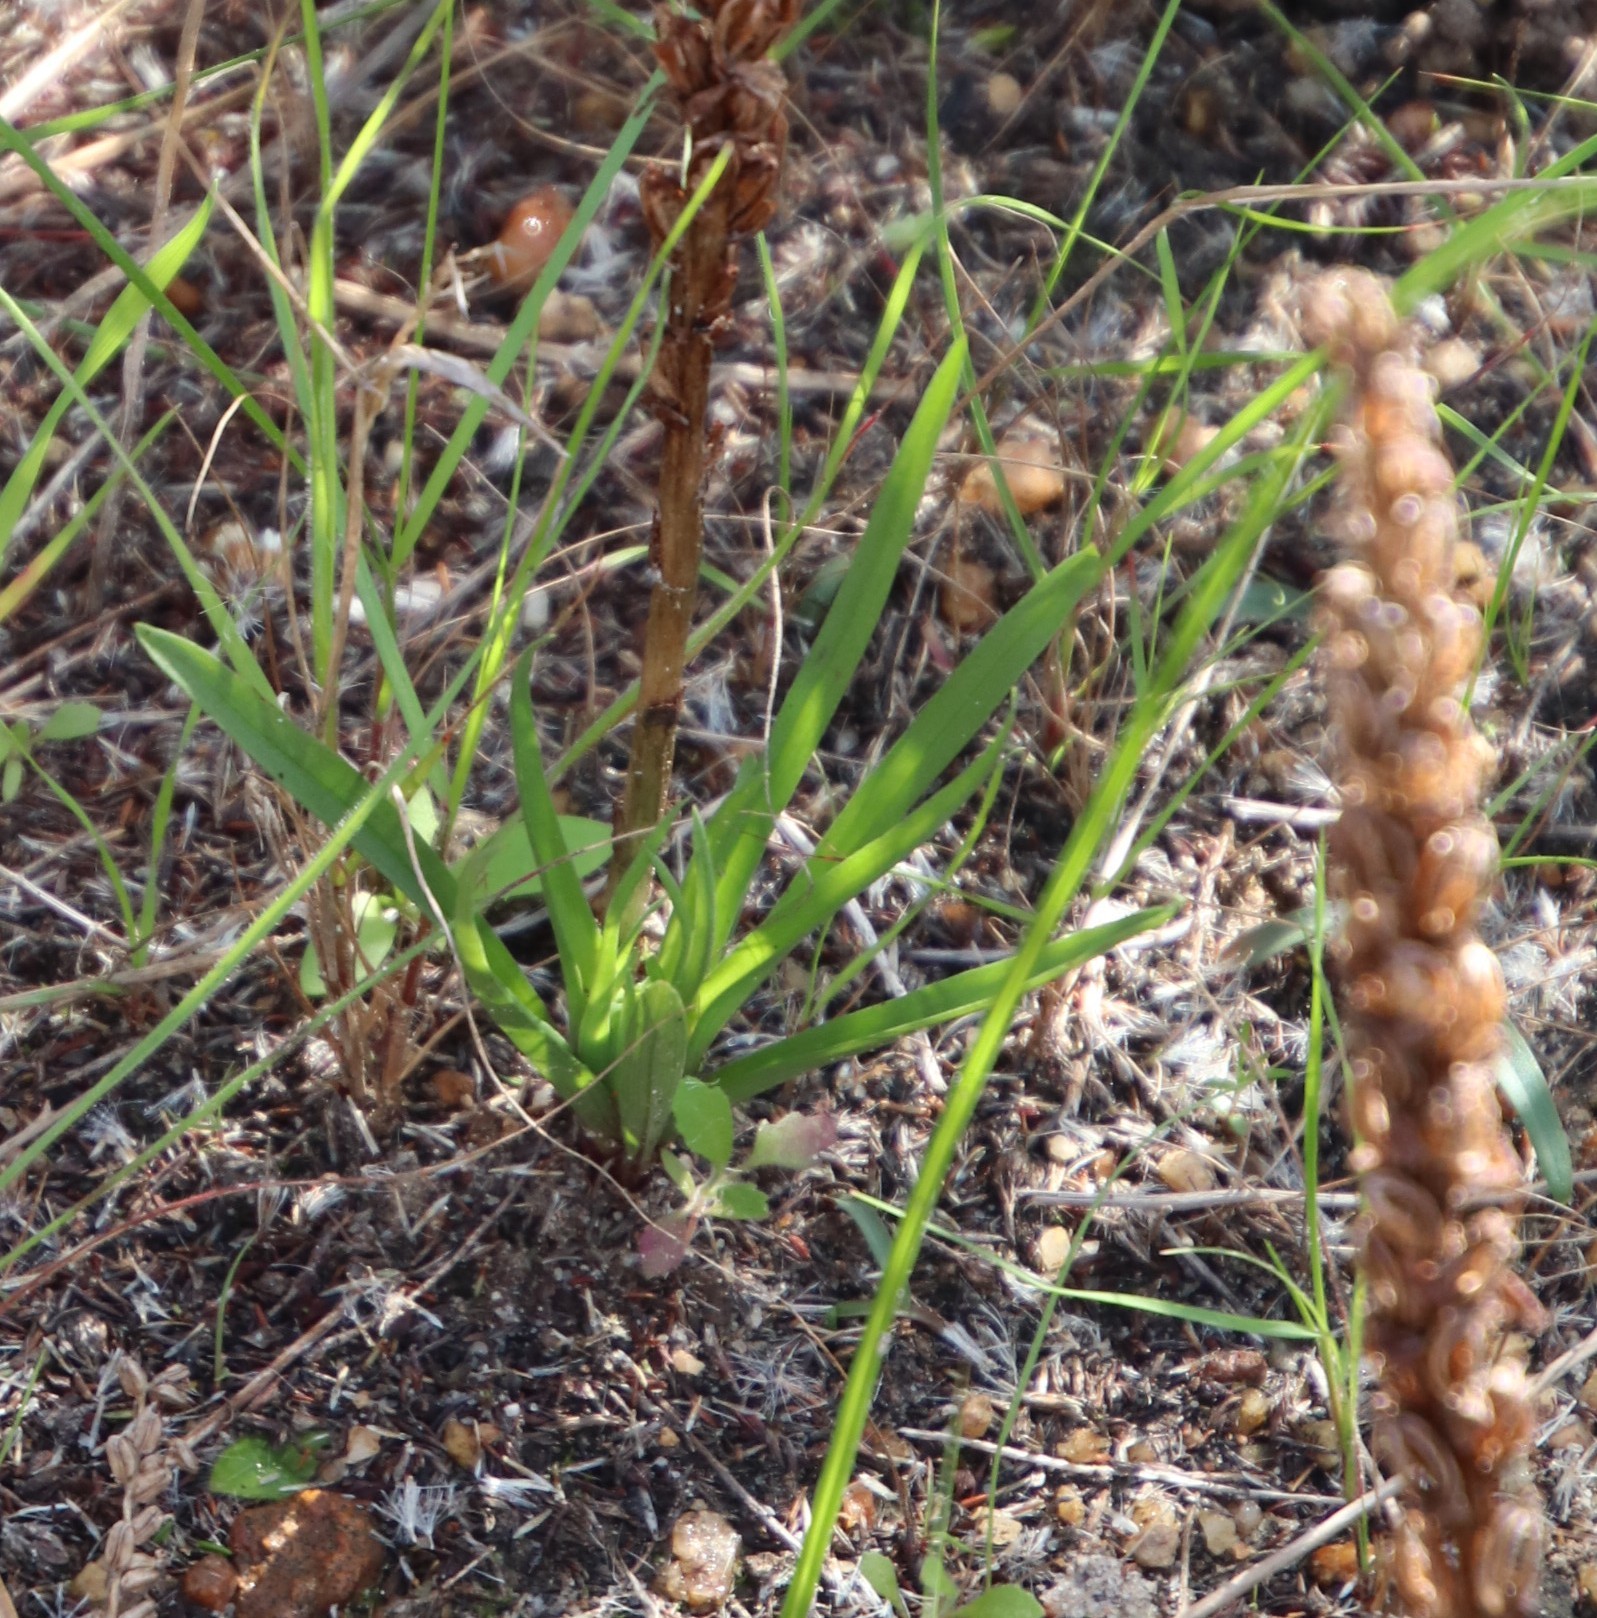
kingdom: Plantae
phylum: Tracheophyta
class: Liliopsida
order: Asparagales
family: Orchidaceae
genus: Disa
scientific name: Disa bracteata
